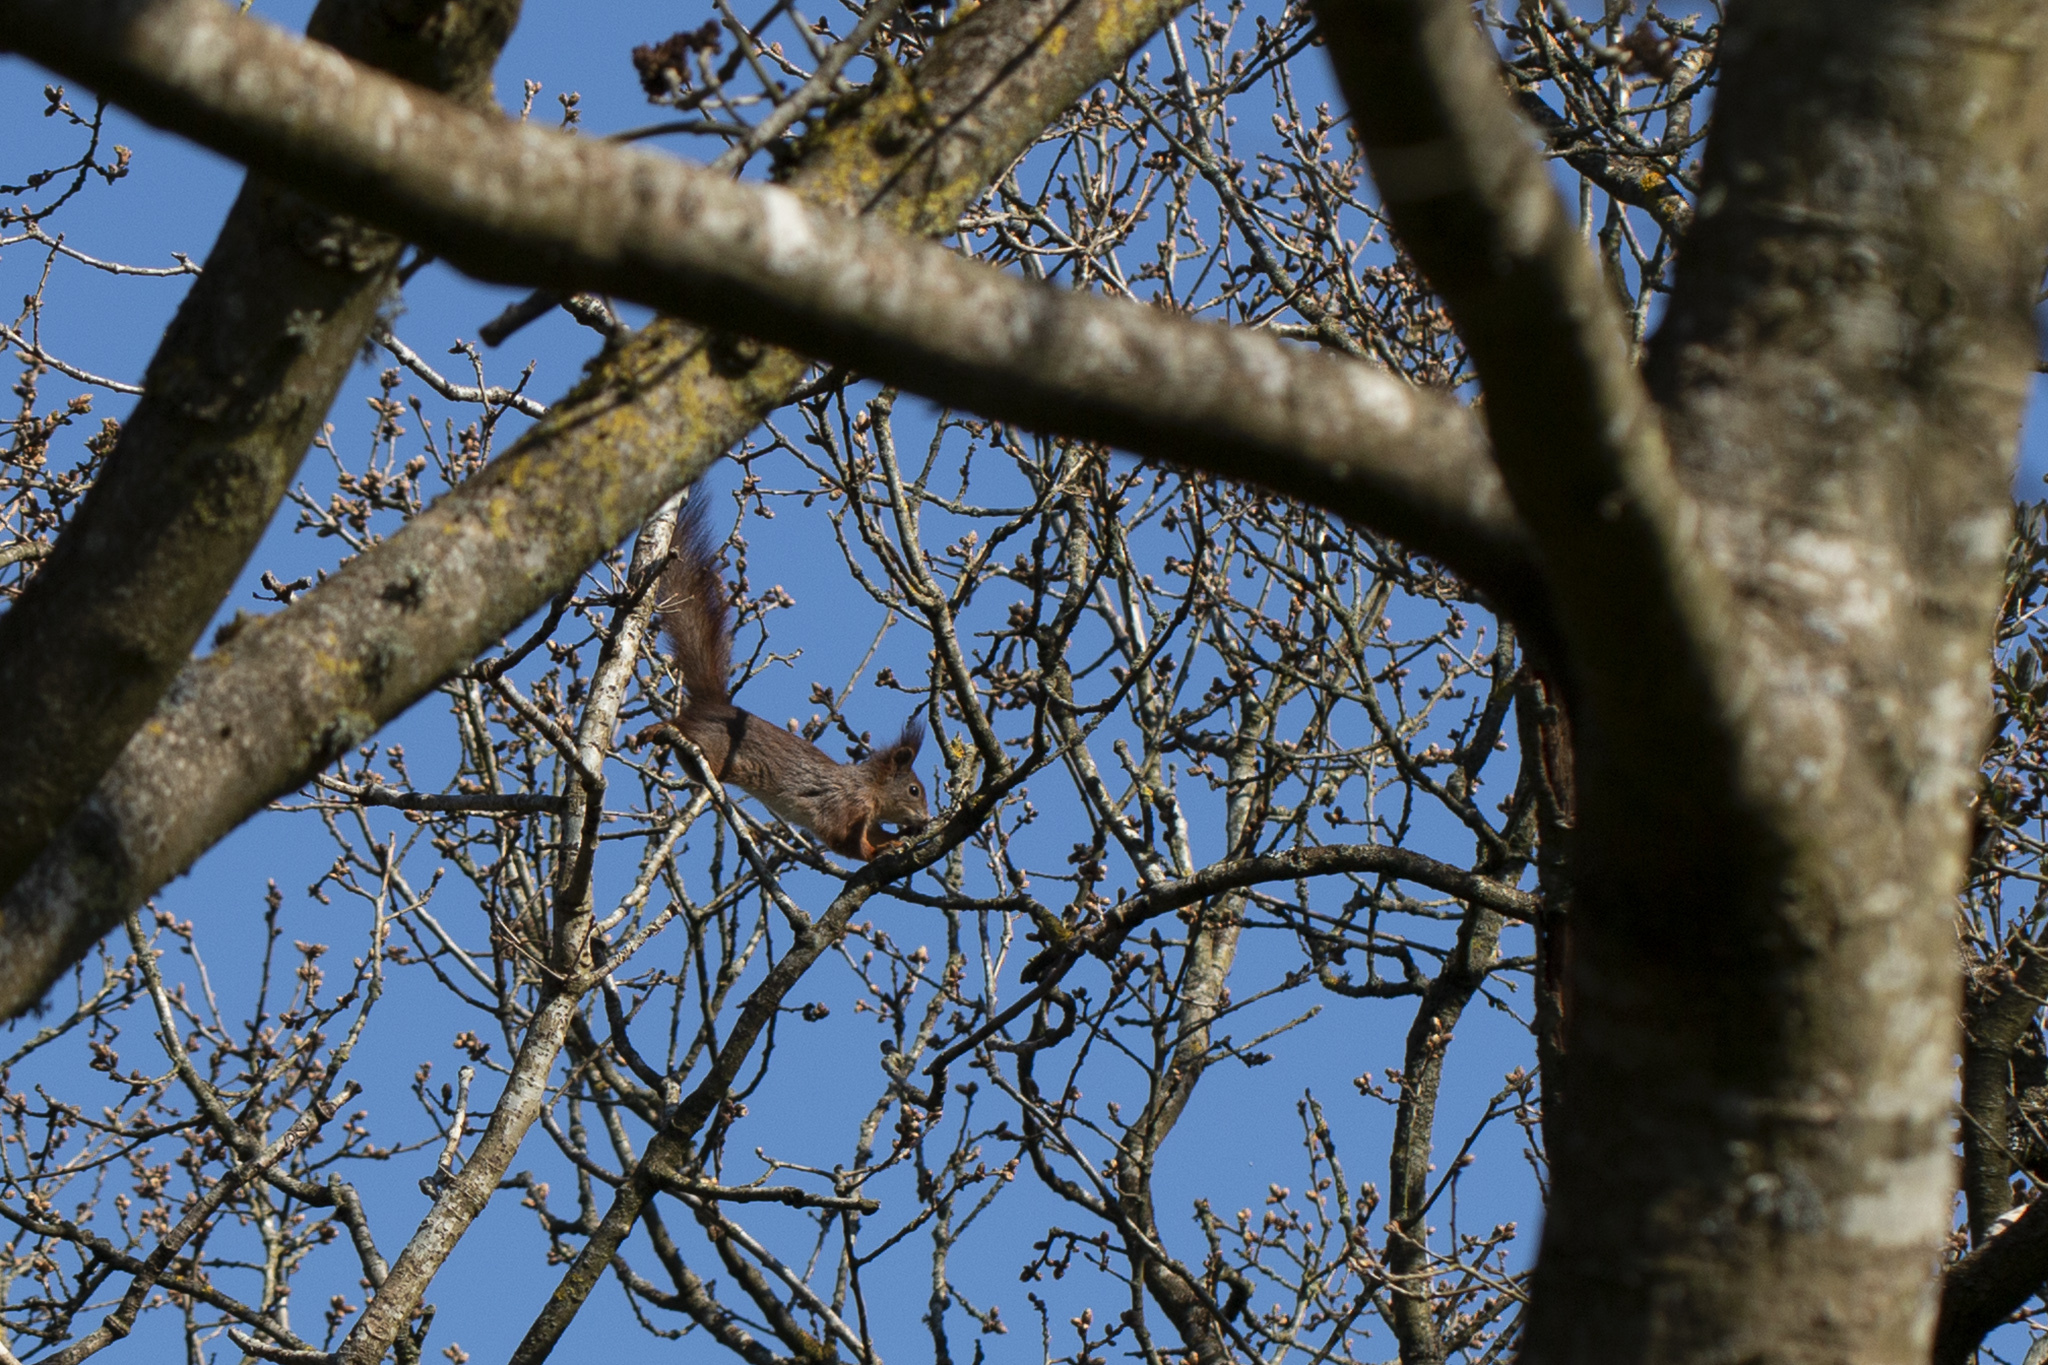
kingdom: Animalia
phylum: Chordata
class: Mammalia
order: Rodentia
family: Sciuridae
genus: Sciurus
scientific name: Sciurus vulgaris
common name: Eurasian red squirrel
